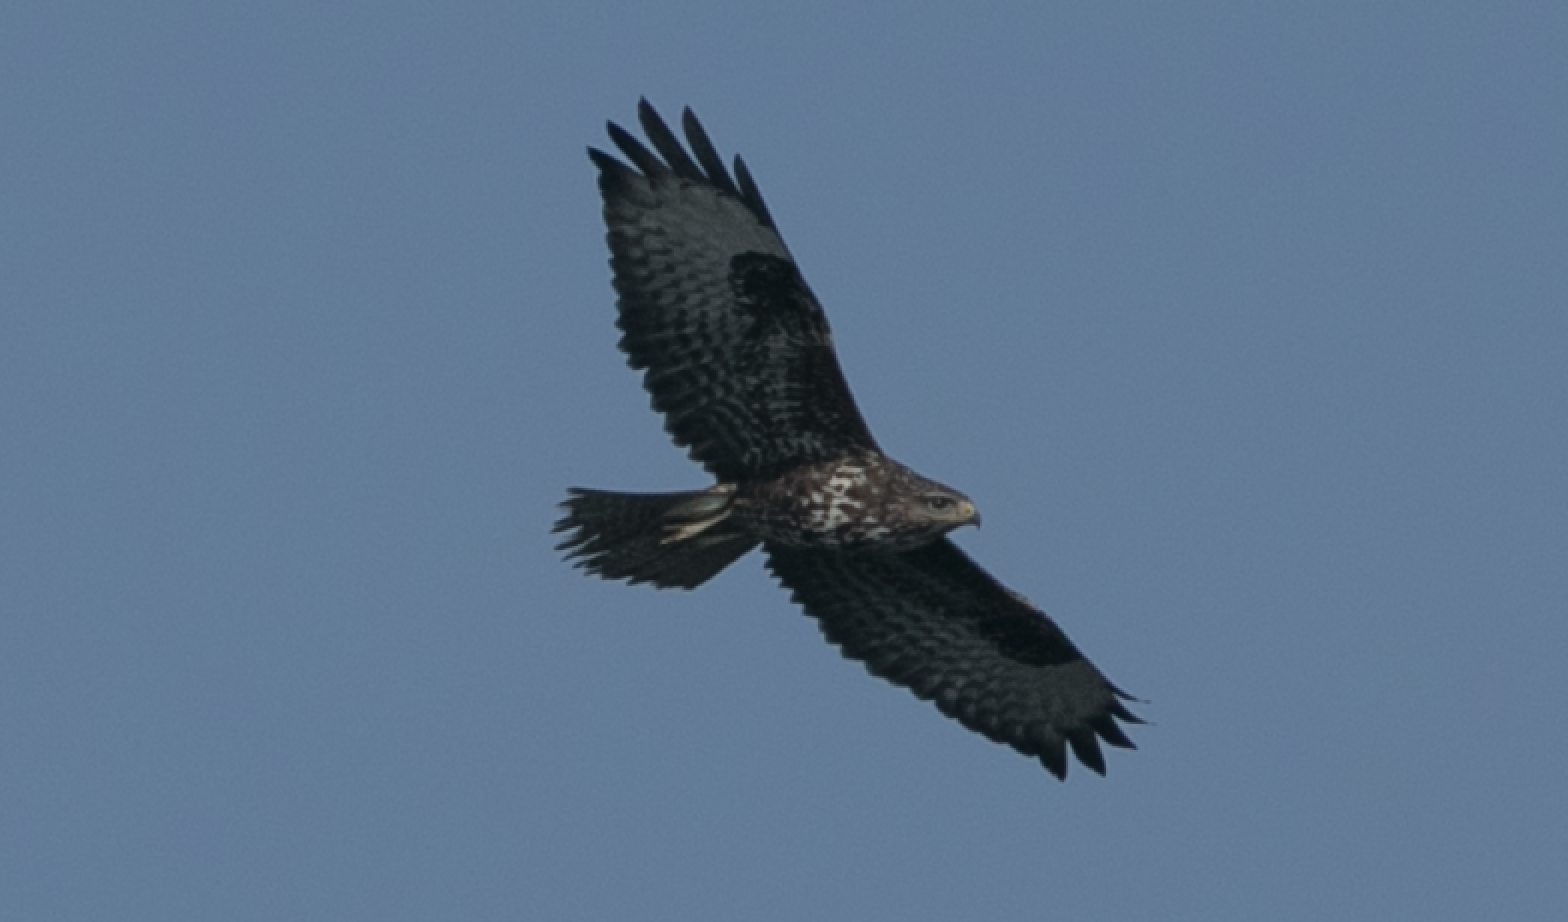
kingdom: Animalia
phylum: Chordata
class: Aves
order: Accipitriformes
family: Accipitridae
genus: Buteo
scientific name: Buteo buteo
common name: Common buzzard
